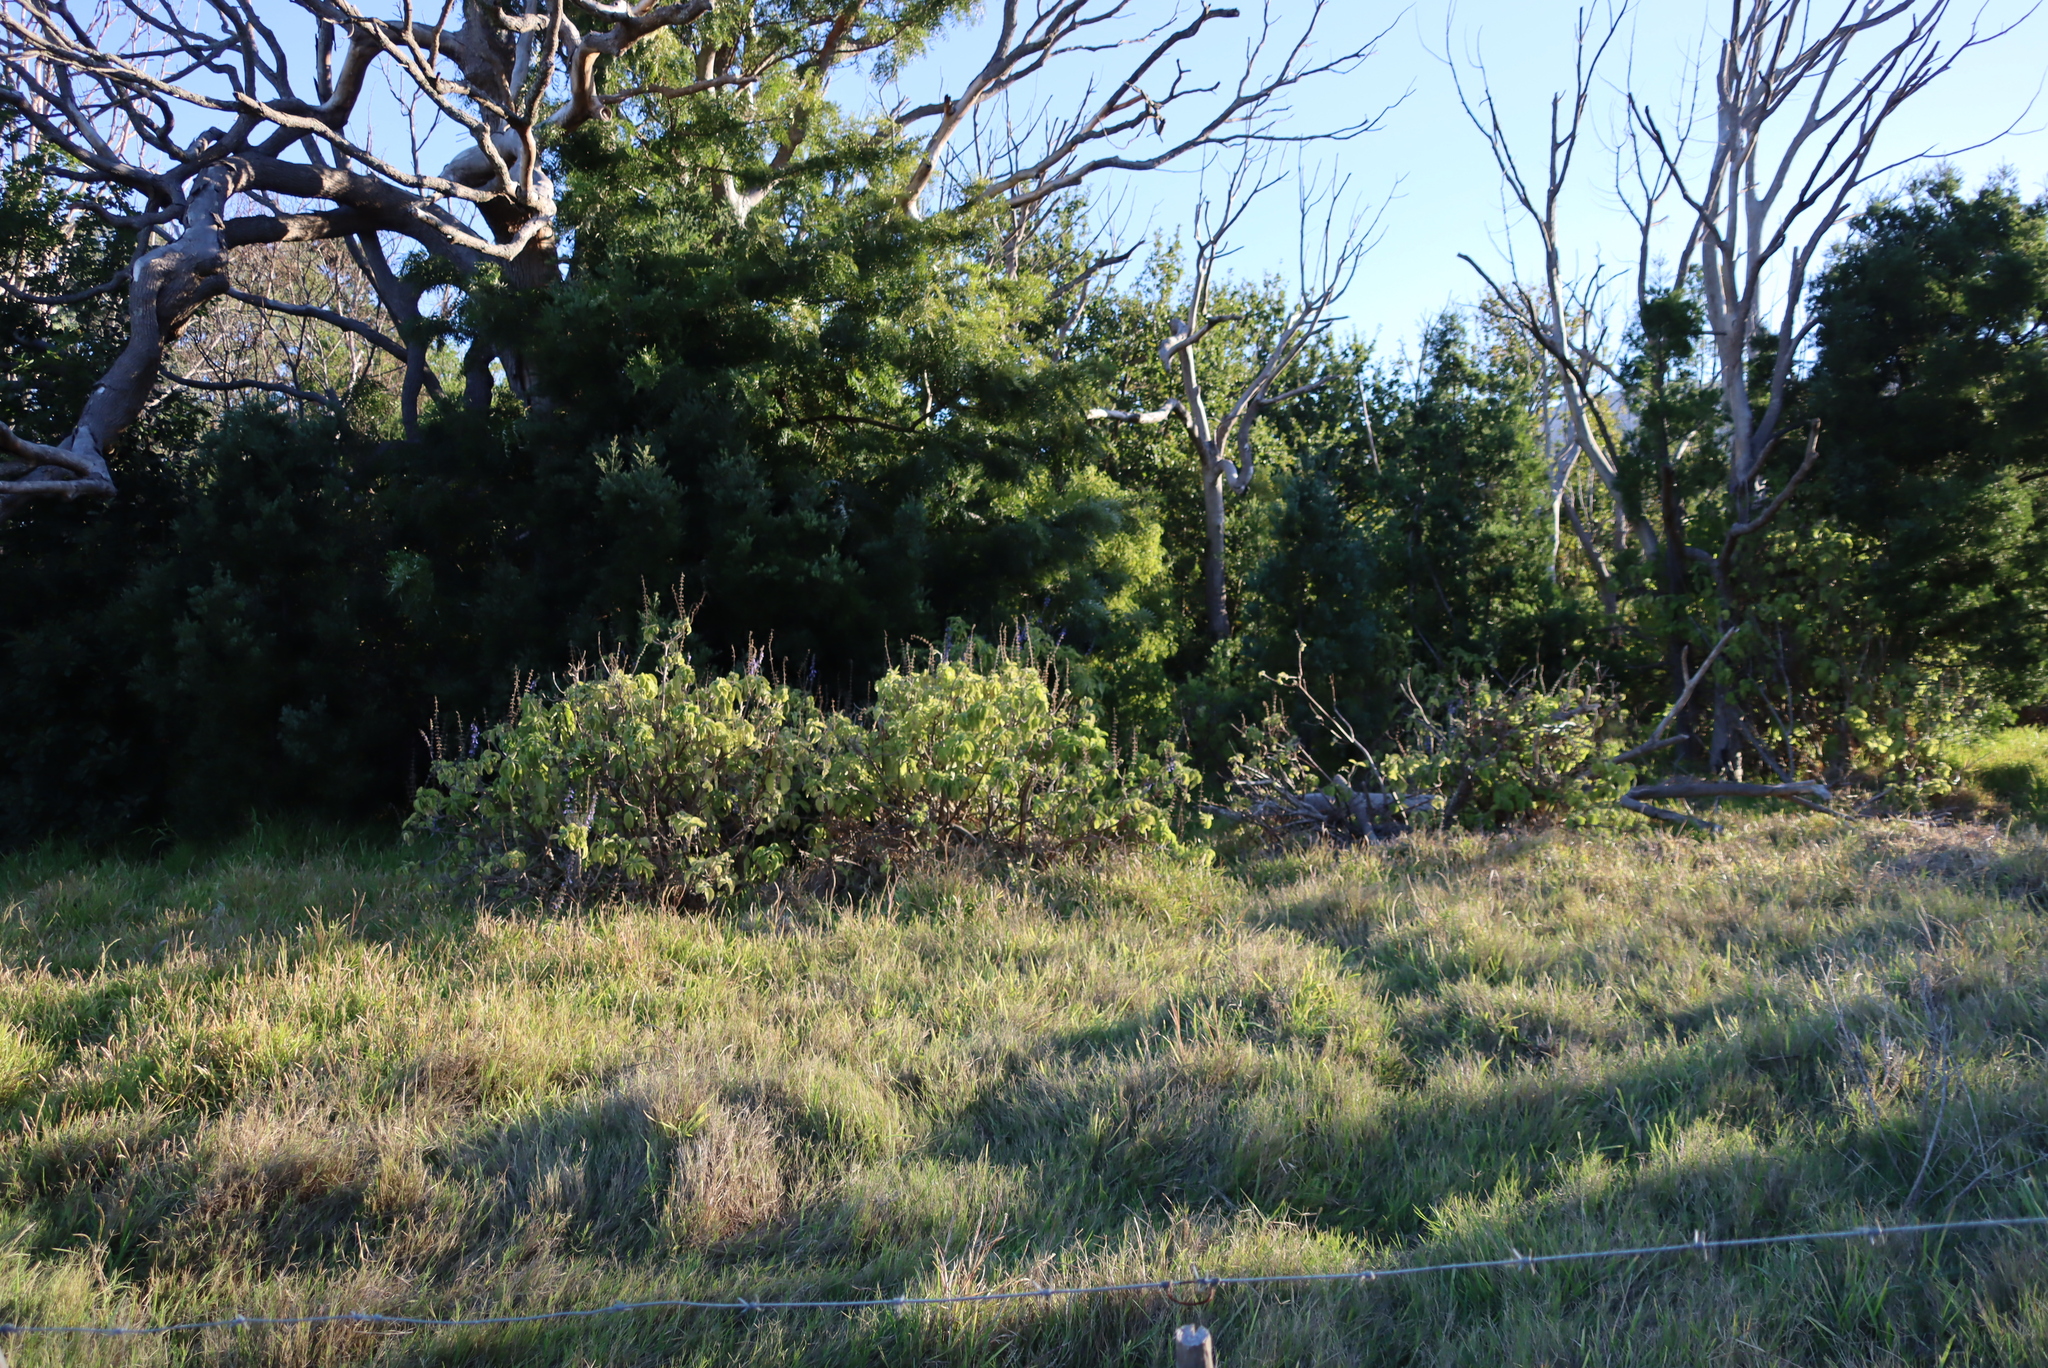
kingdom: Plantae
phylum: Tracheophyta
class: Magnoliopsida
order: Lamiales
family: Lamiaceae
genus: Coleus
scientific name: Coleus barbatus
